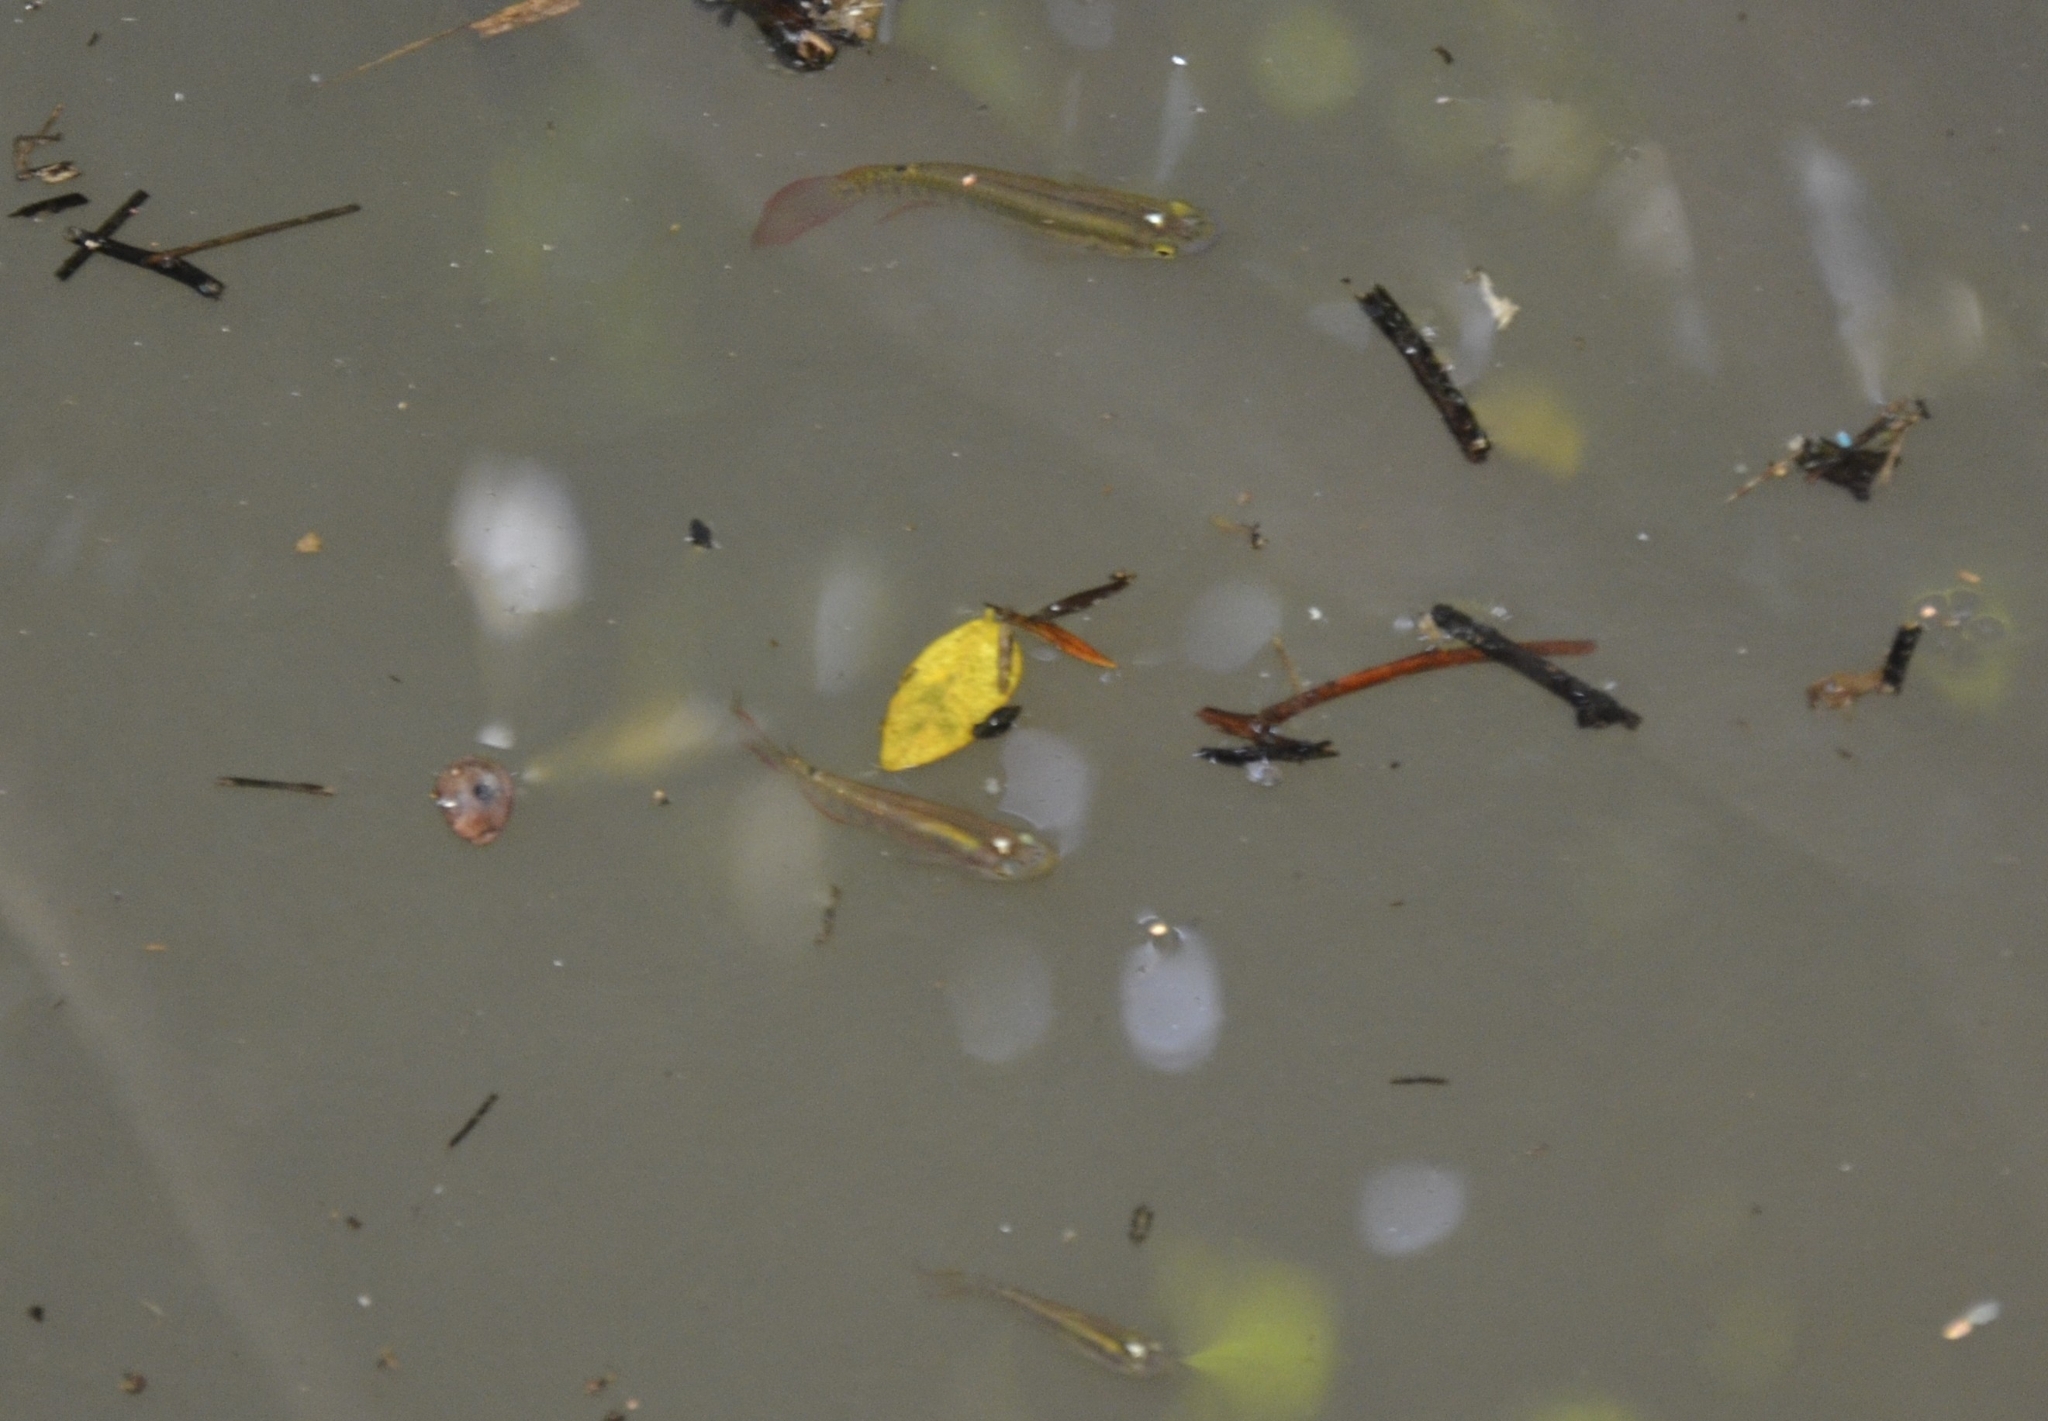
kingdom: Animalia
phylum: Chordata
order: Cyprinodontiformes
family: Aplocheilidae
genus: Aplocheilus
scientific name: Aplocheilus lineatus
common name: Striped panchax
